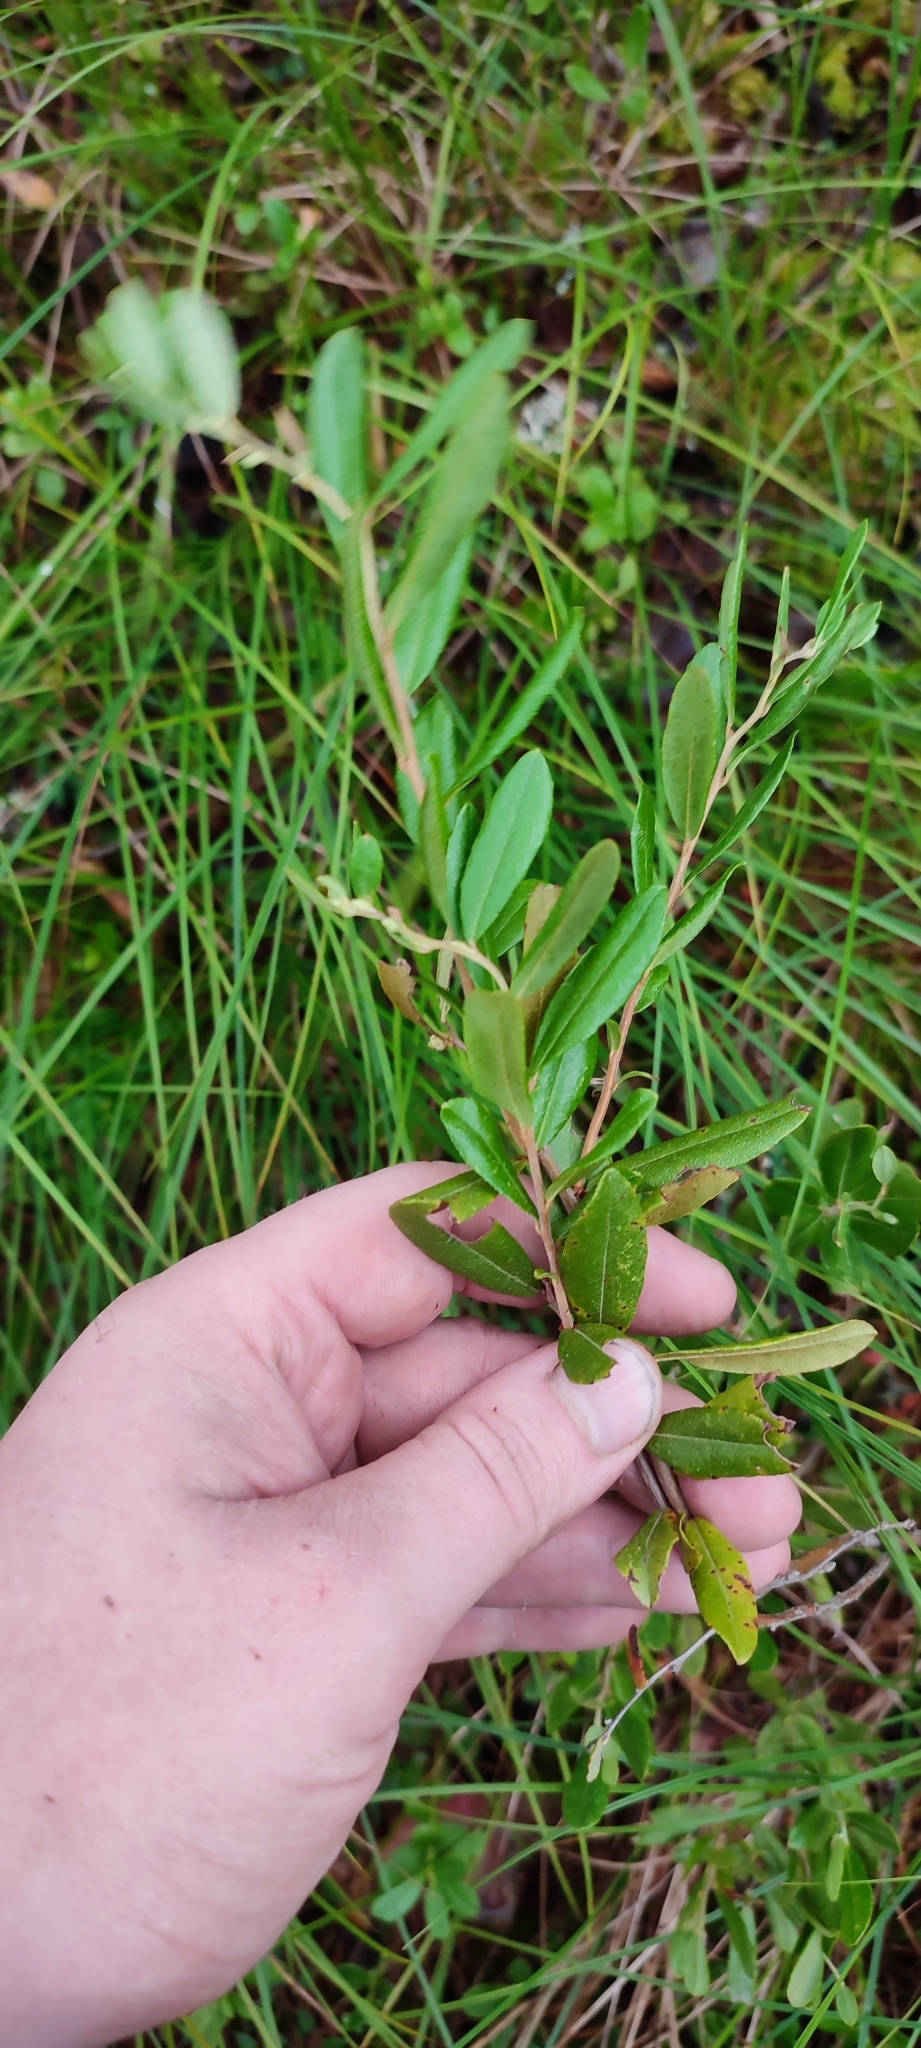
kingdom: Plantae
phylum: Tracheophyta
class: Magnoliopsida
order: Ericales
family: Ericaceae
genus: Chamaedaphne
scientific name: Chamaedaphne calyculata
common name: Leatherleaf
